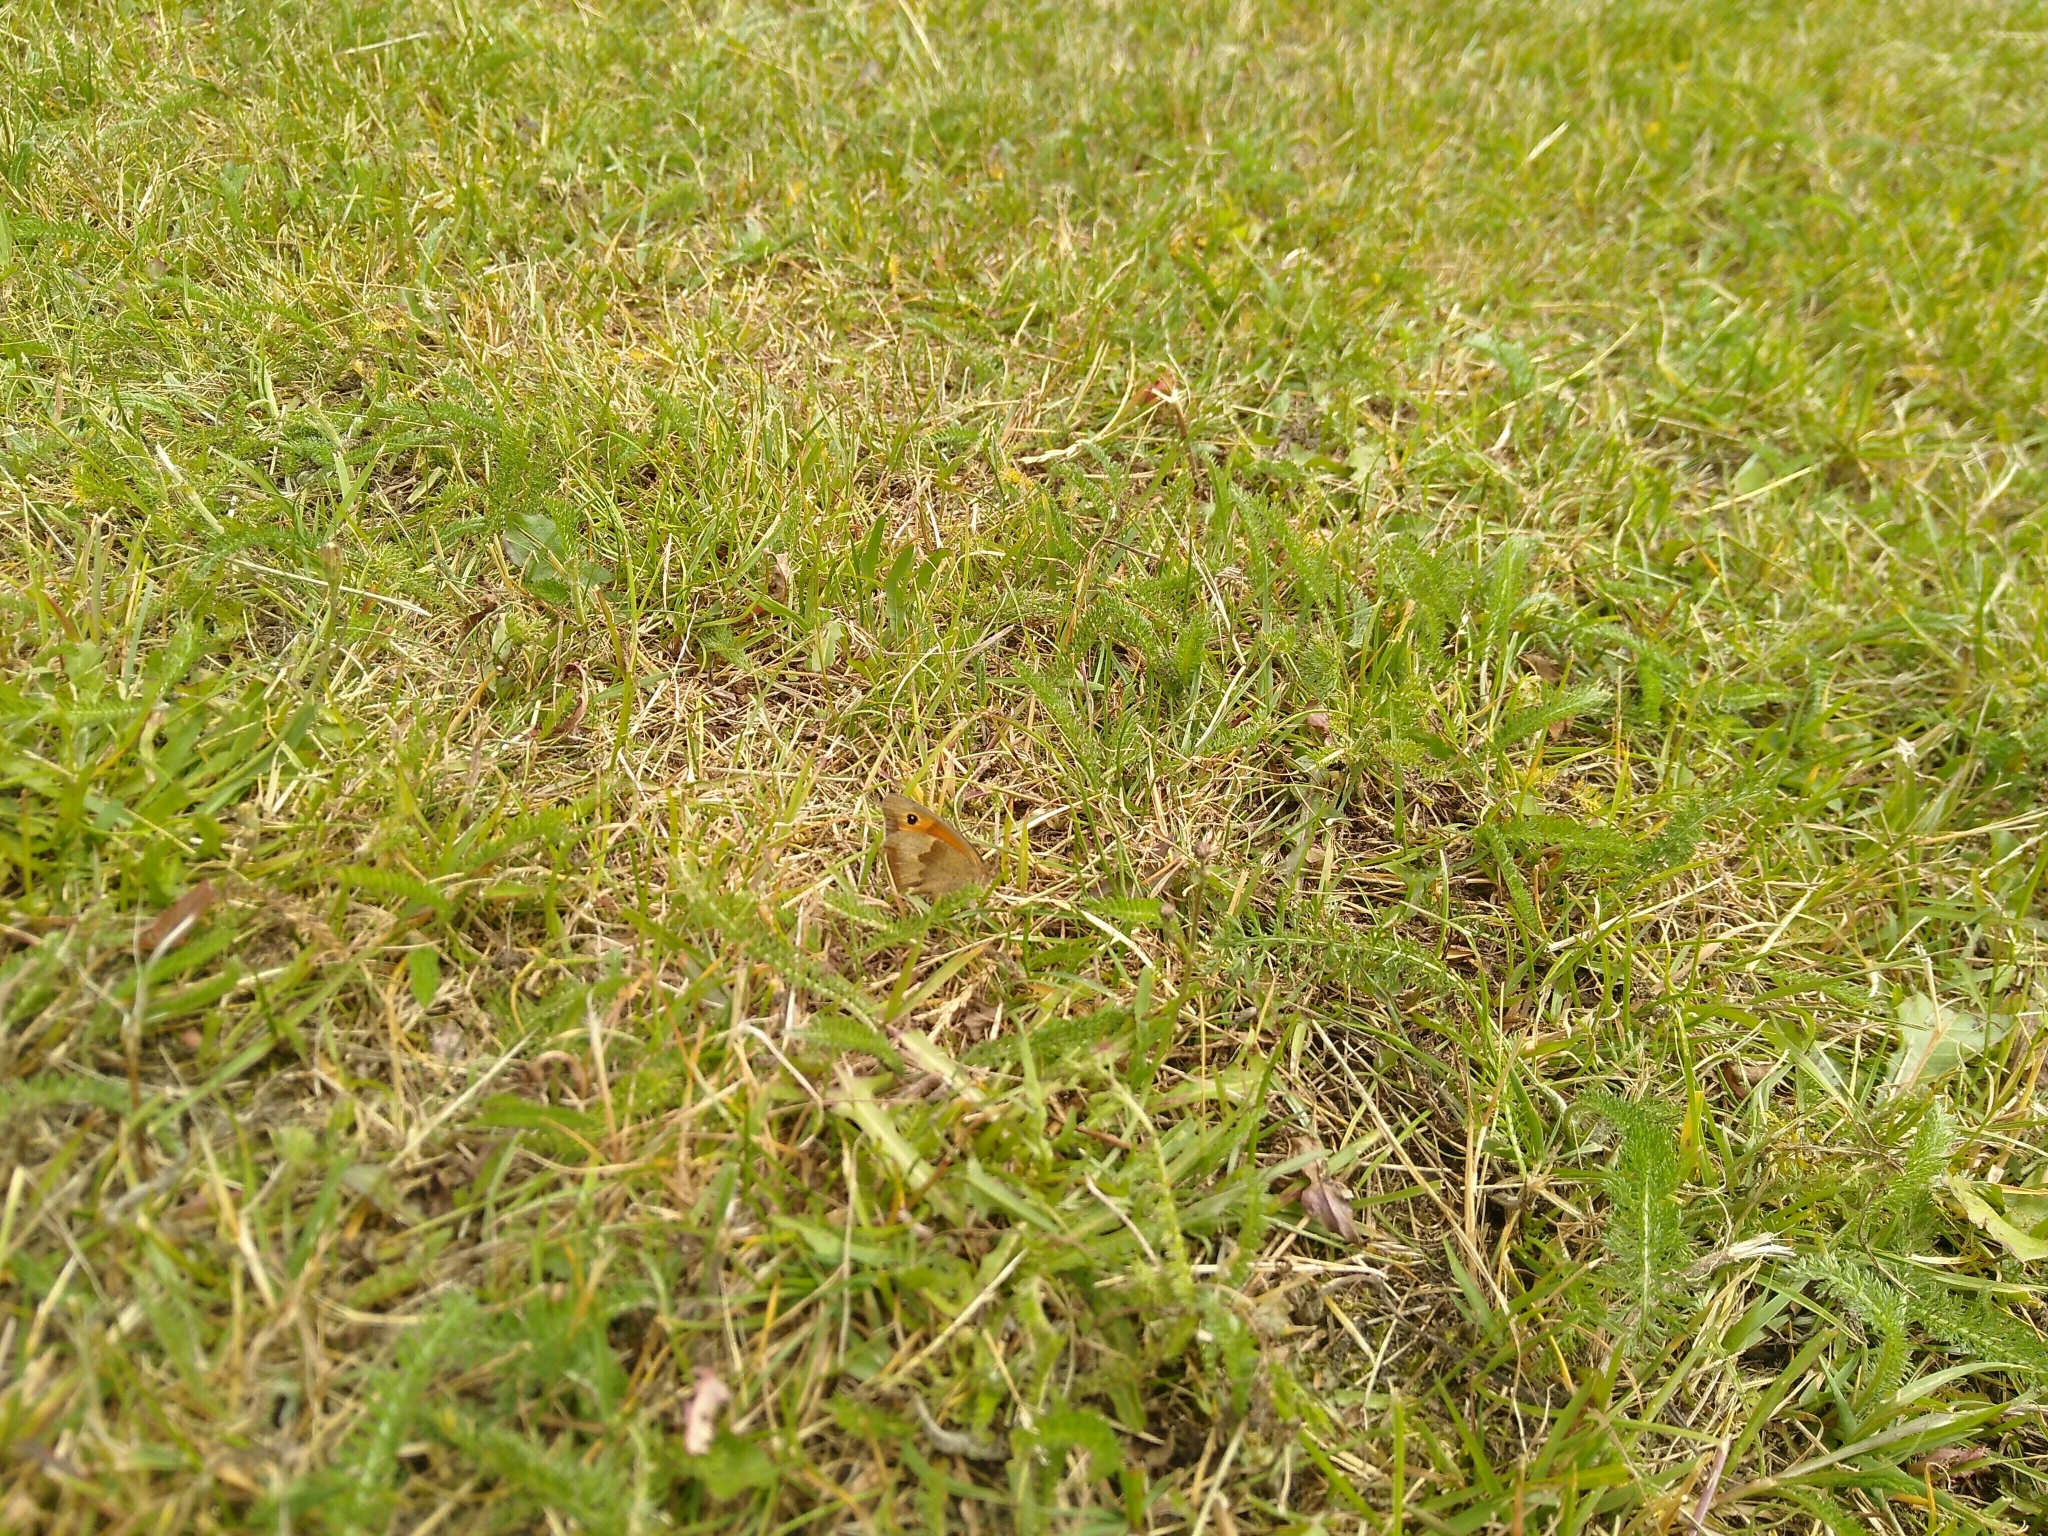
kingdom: Animalia
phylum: Arthropoda
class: Insecta
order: Lepidoptera
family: Nymphalidae
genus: Maniola
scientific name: Maniola jurtina
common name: Meadow brown
